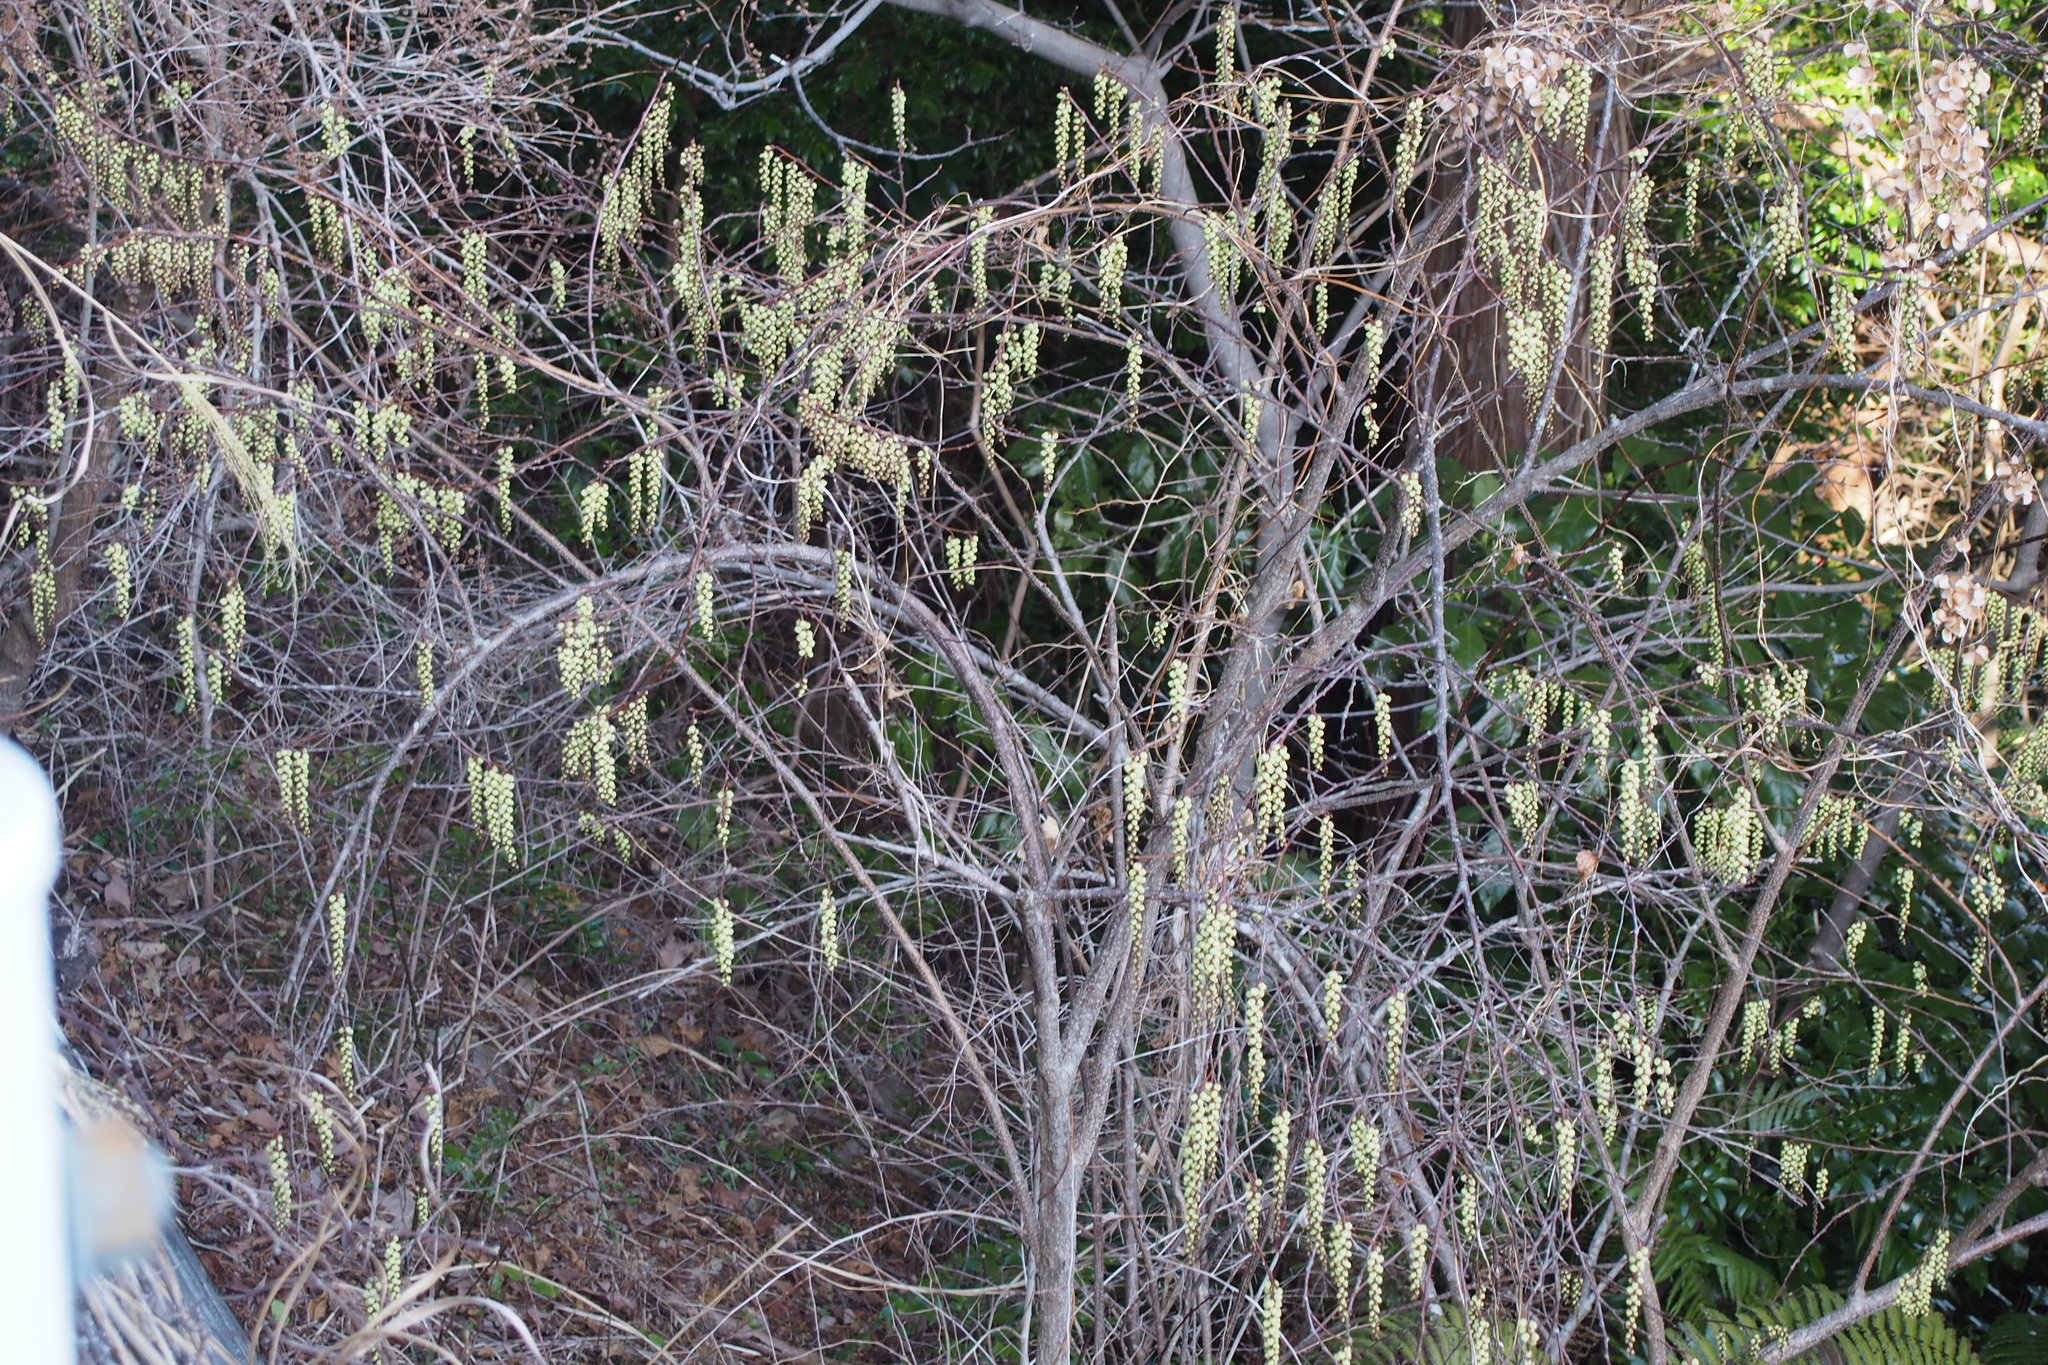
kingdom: Plantae
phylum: Tracheophyta
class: Magnoliopsida
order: Crossosomatales
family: Stachyuraceae
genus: Stachyurus
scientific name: Stachyurus praecox
